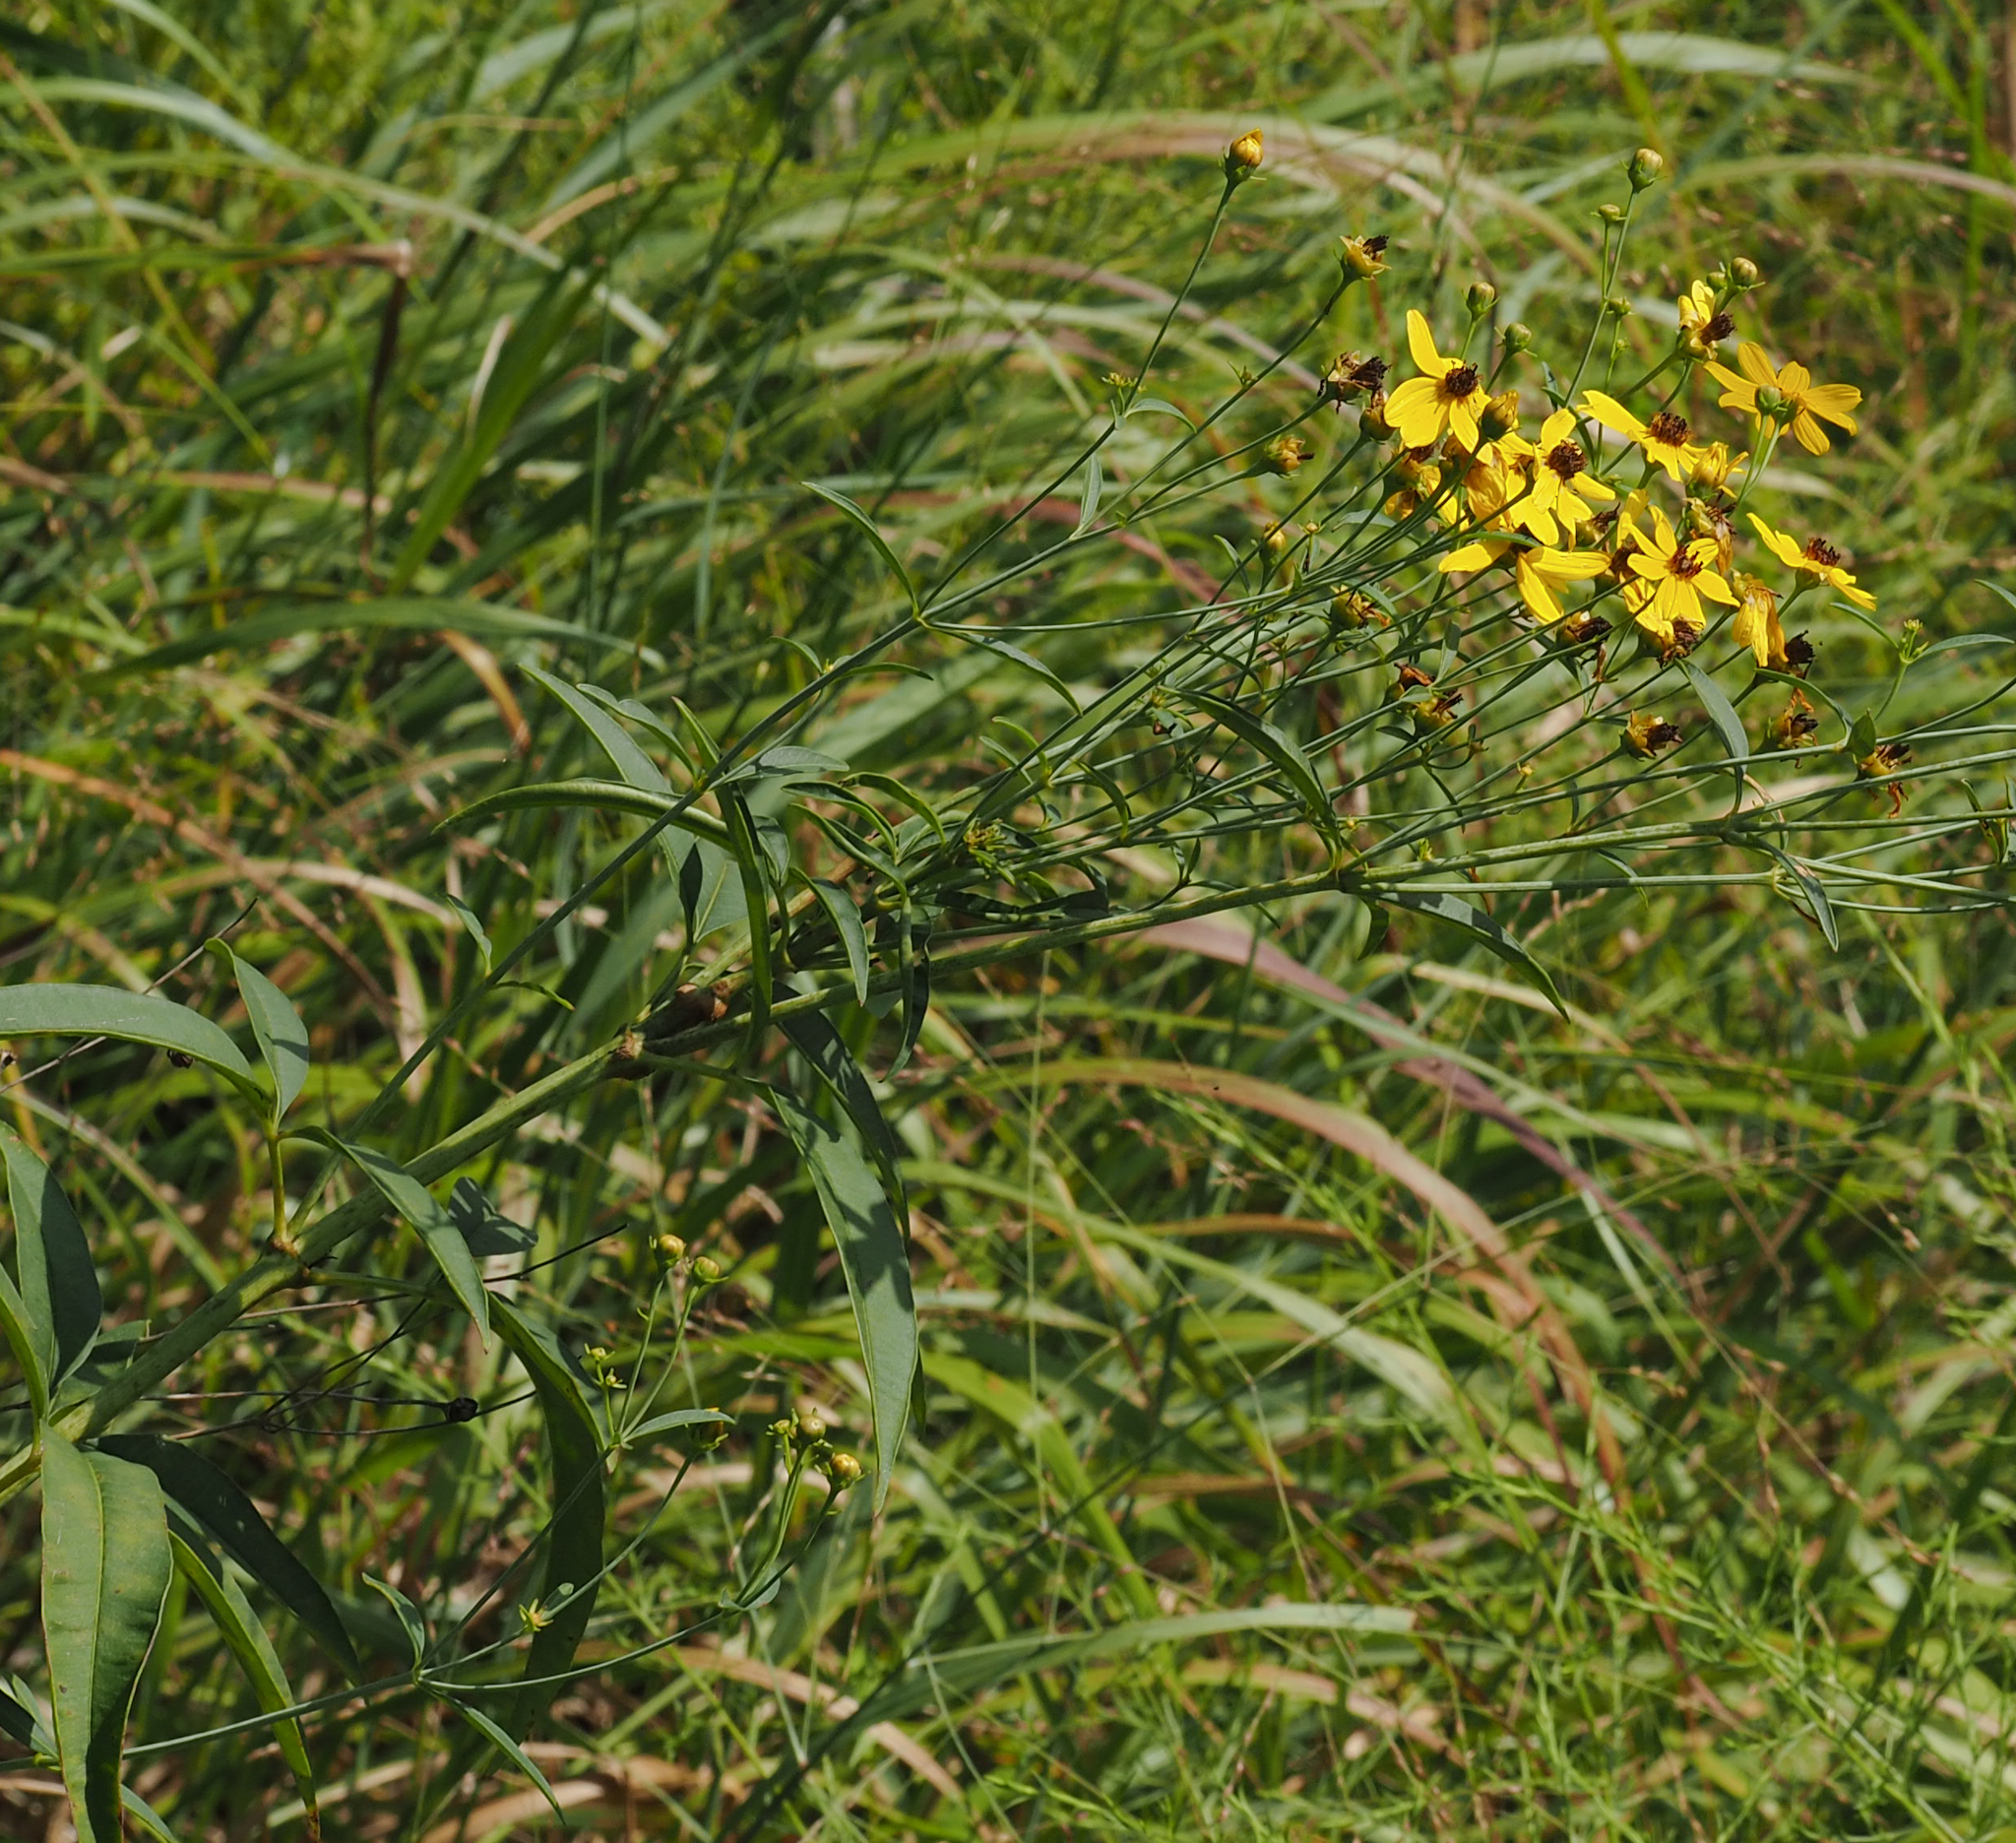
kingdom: Plantae
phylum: Tracheophyta
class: Magnoliopsida
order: Asterales
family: Asteraceae
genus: Coreopsis
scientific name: Coreopsis tripteris
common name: Tall coreopsis
